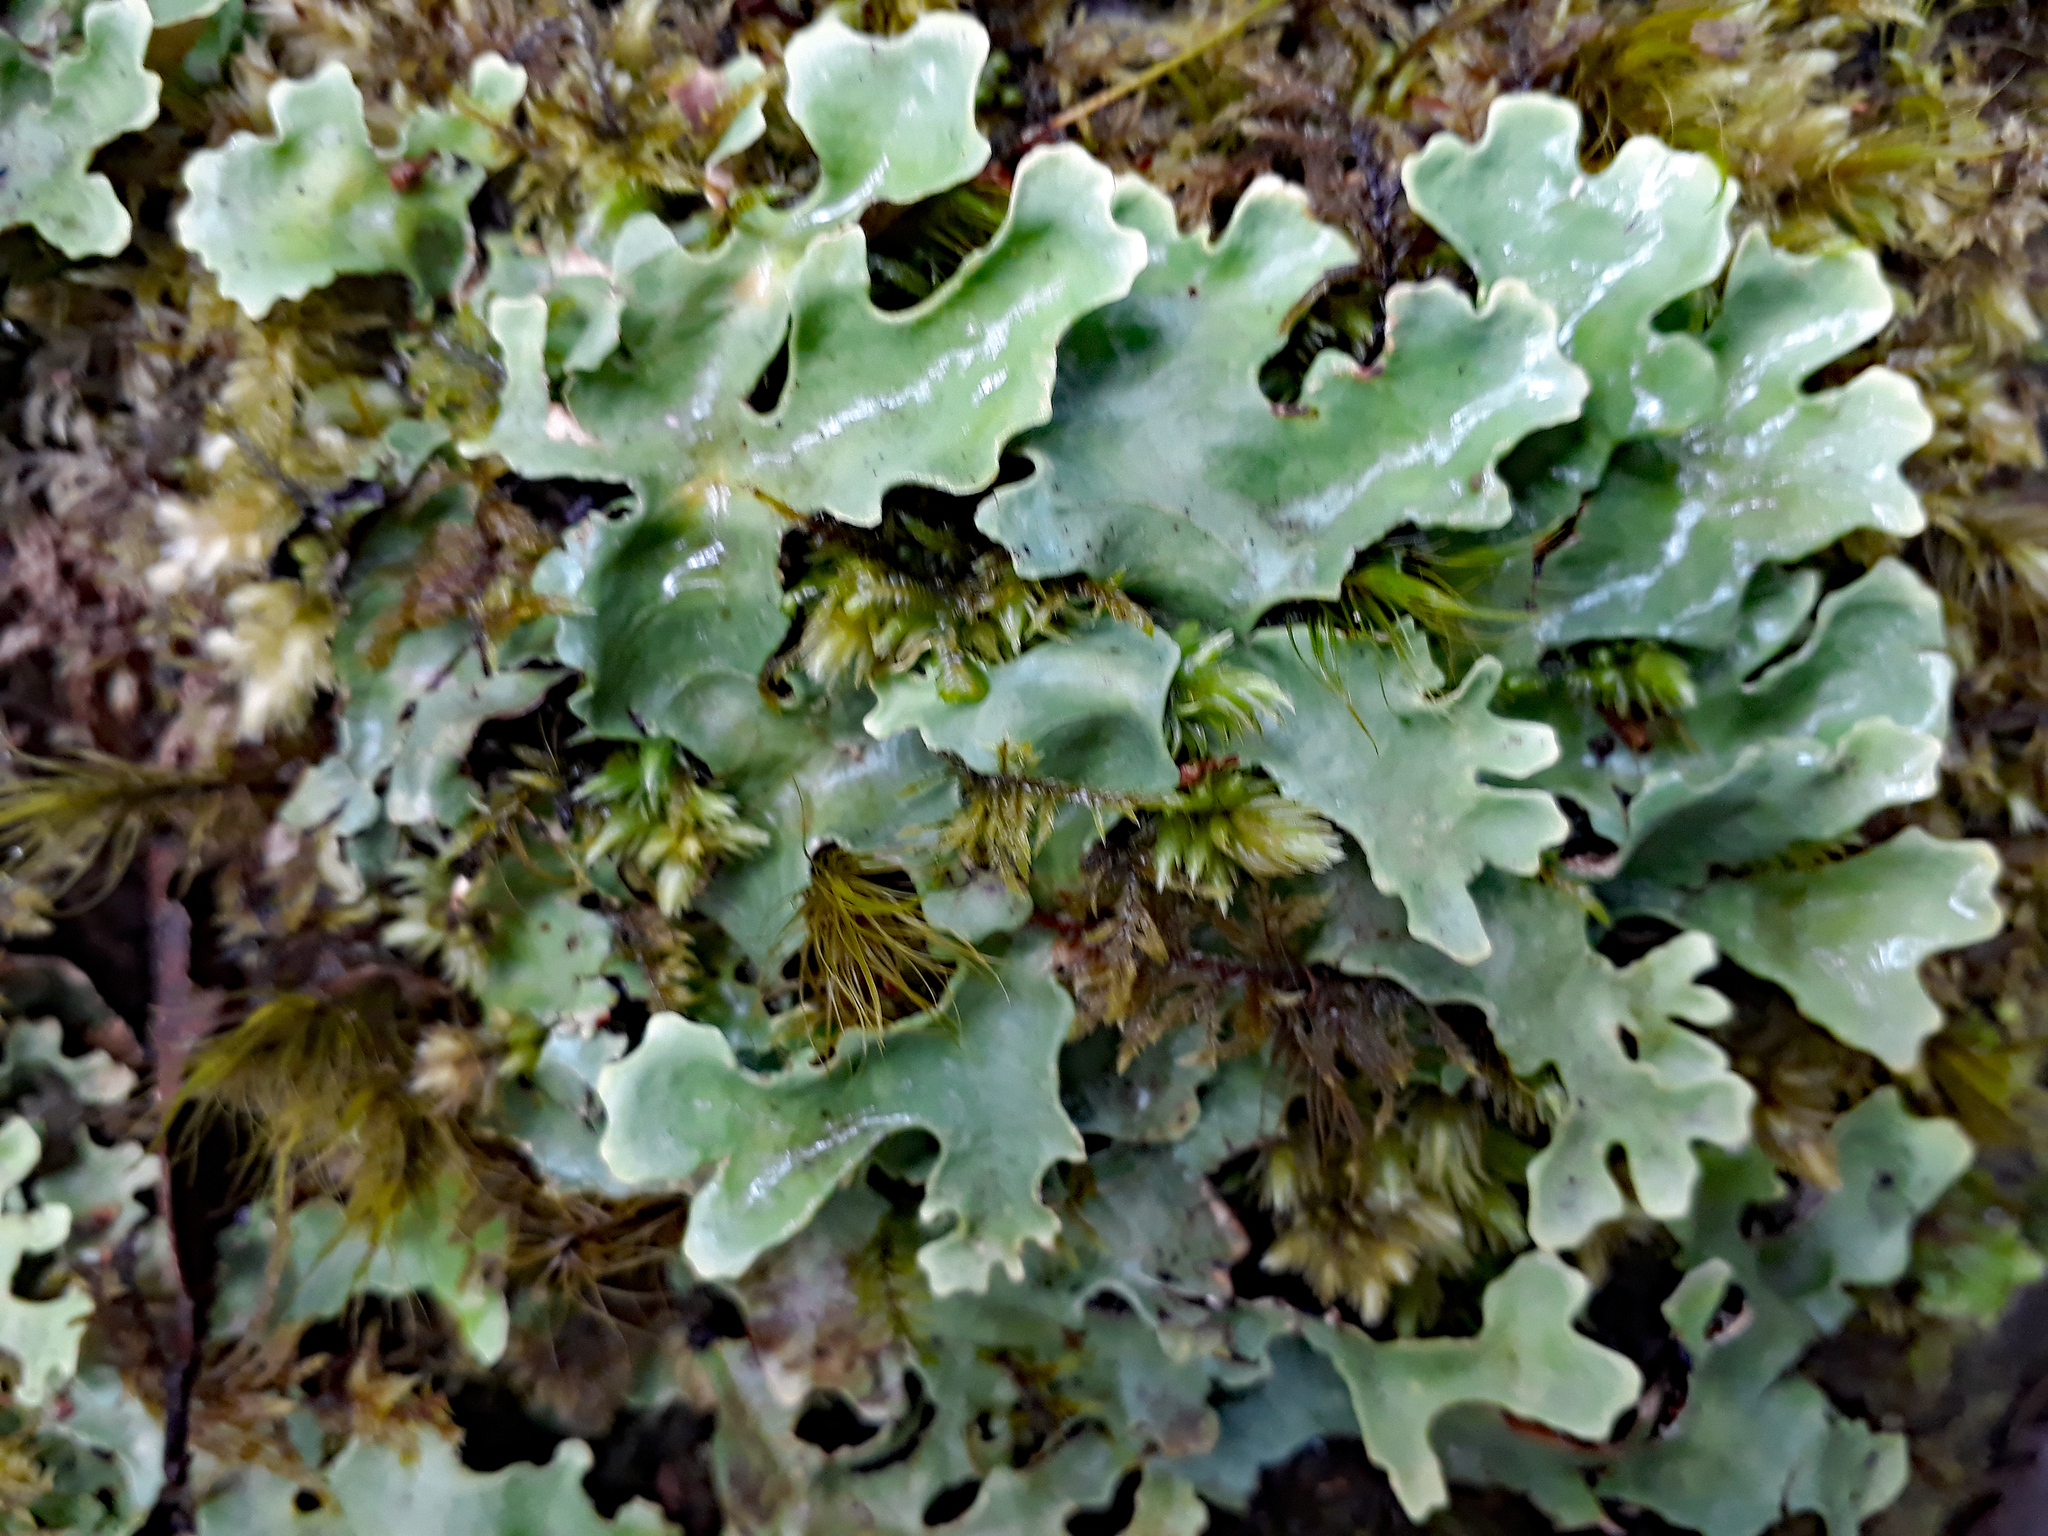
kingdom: Fungi
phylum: Ascomycota
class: Lecanoromycetes
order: Peltigerales
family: Lobariaceae
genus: Pseudocyphellaria
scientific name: Pseudocyphellaria homeophylla
